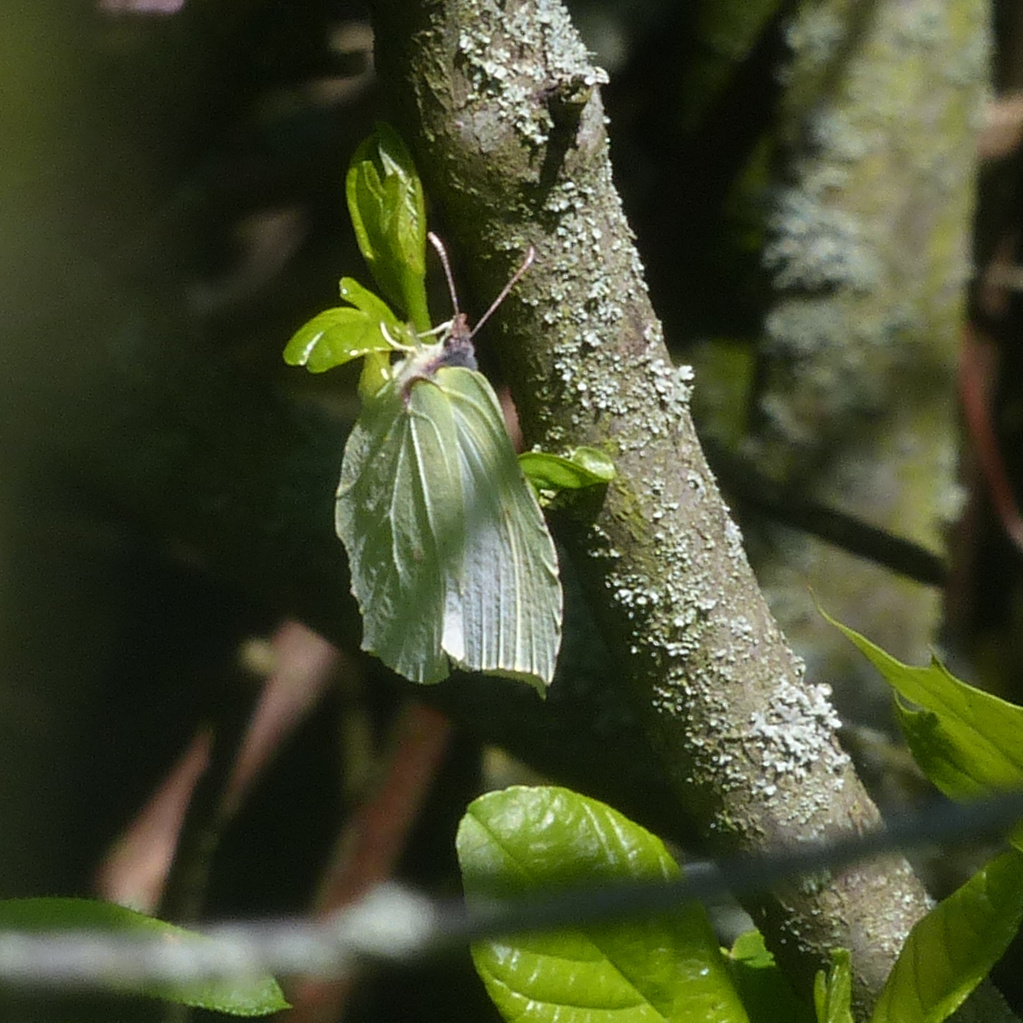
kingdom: Animalia
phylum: Arthropoda
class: Insecta
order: Lepidoptera
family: Pieridae
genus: Gonepteryx
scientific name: Gonepteryx rhamni
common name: Brimstone
